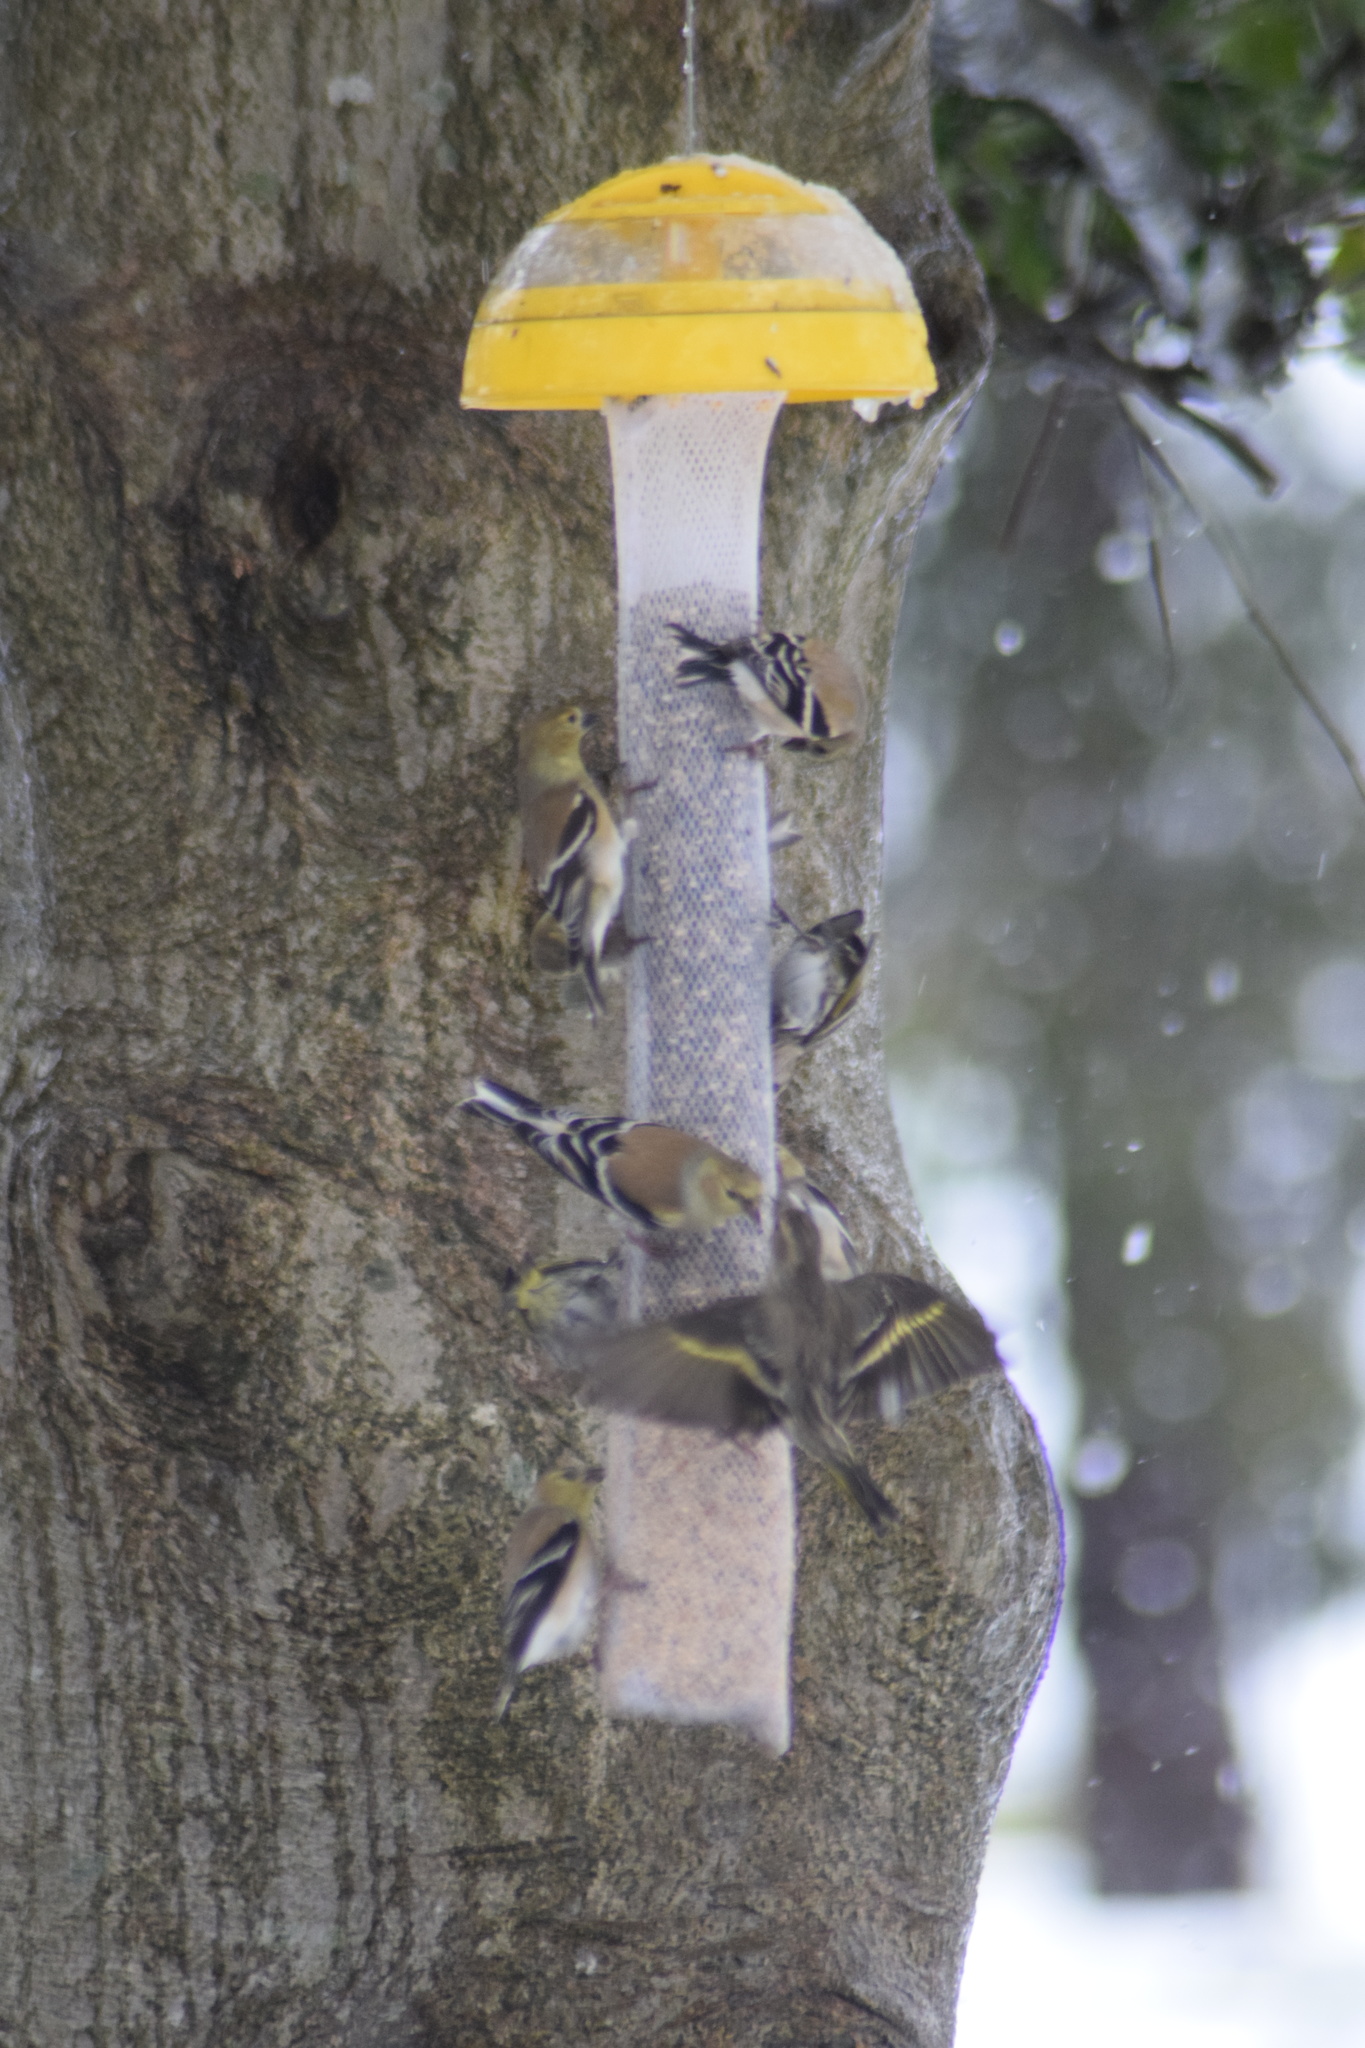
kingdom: Animalia
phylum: Chordata
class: Aves
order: Passeriformes
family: Fringillidae
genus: Spinus
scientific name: Spinus pinus
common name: Pine siskin
